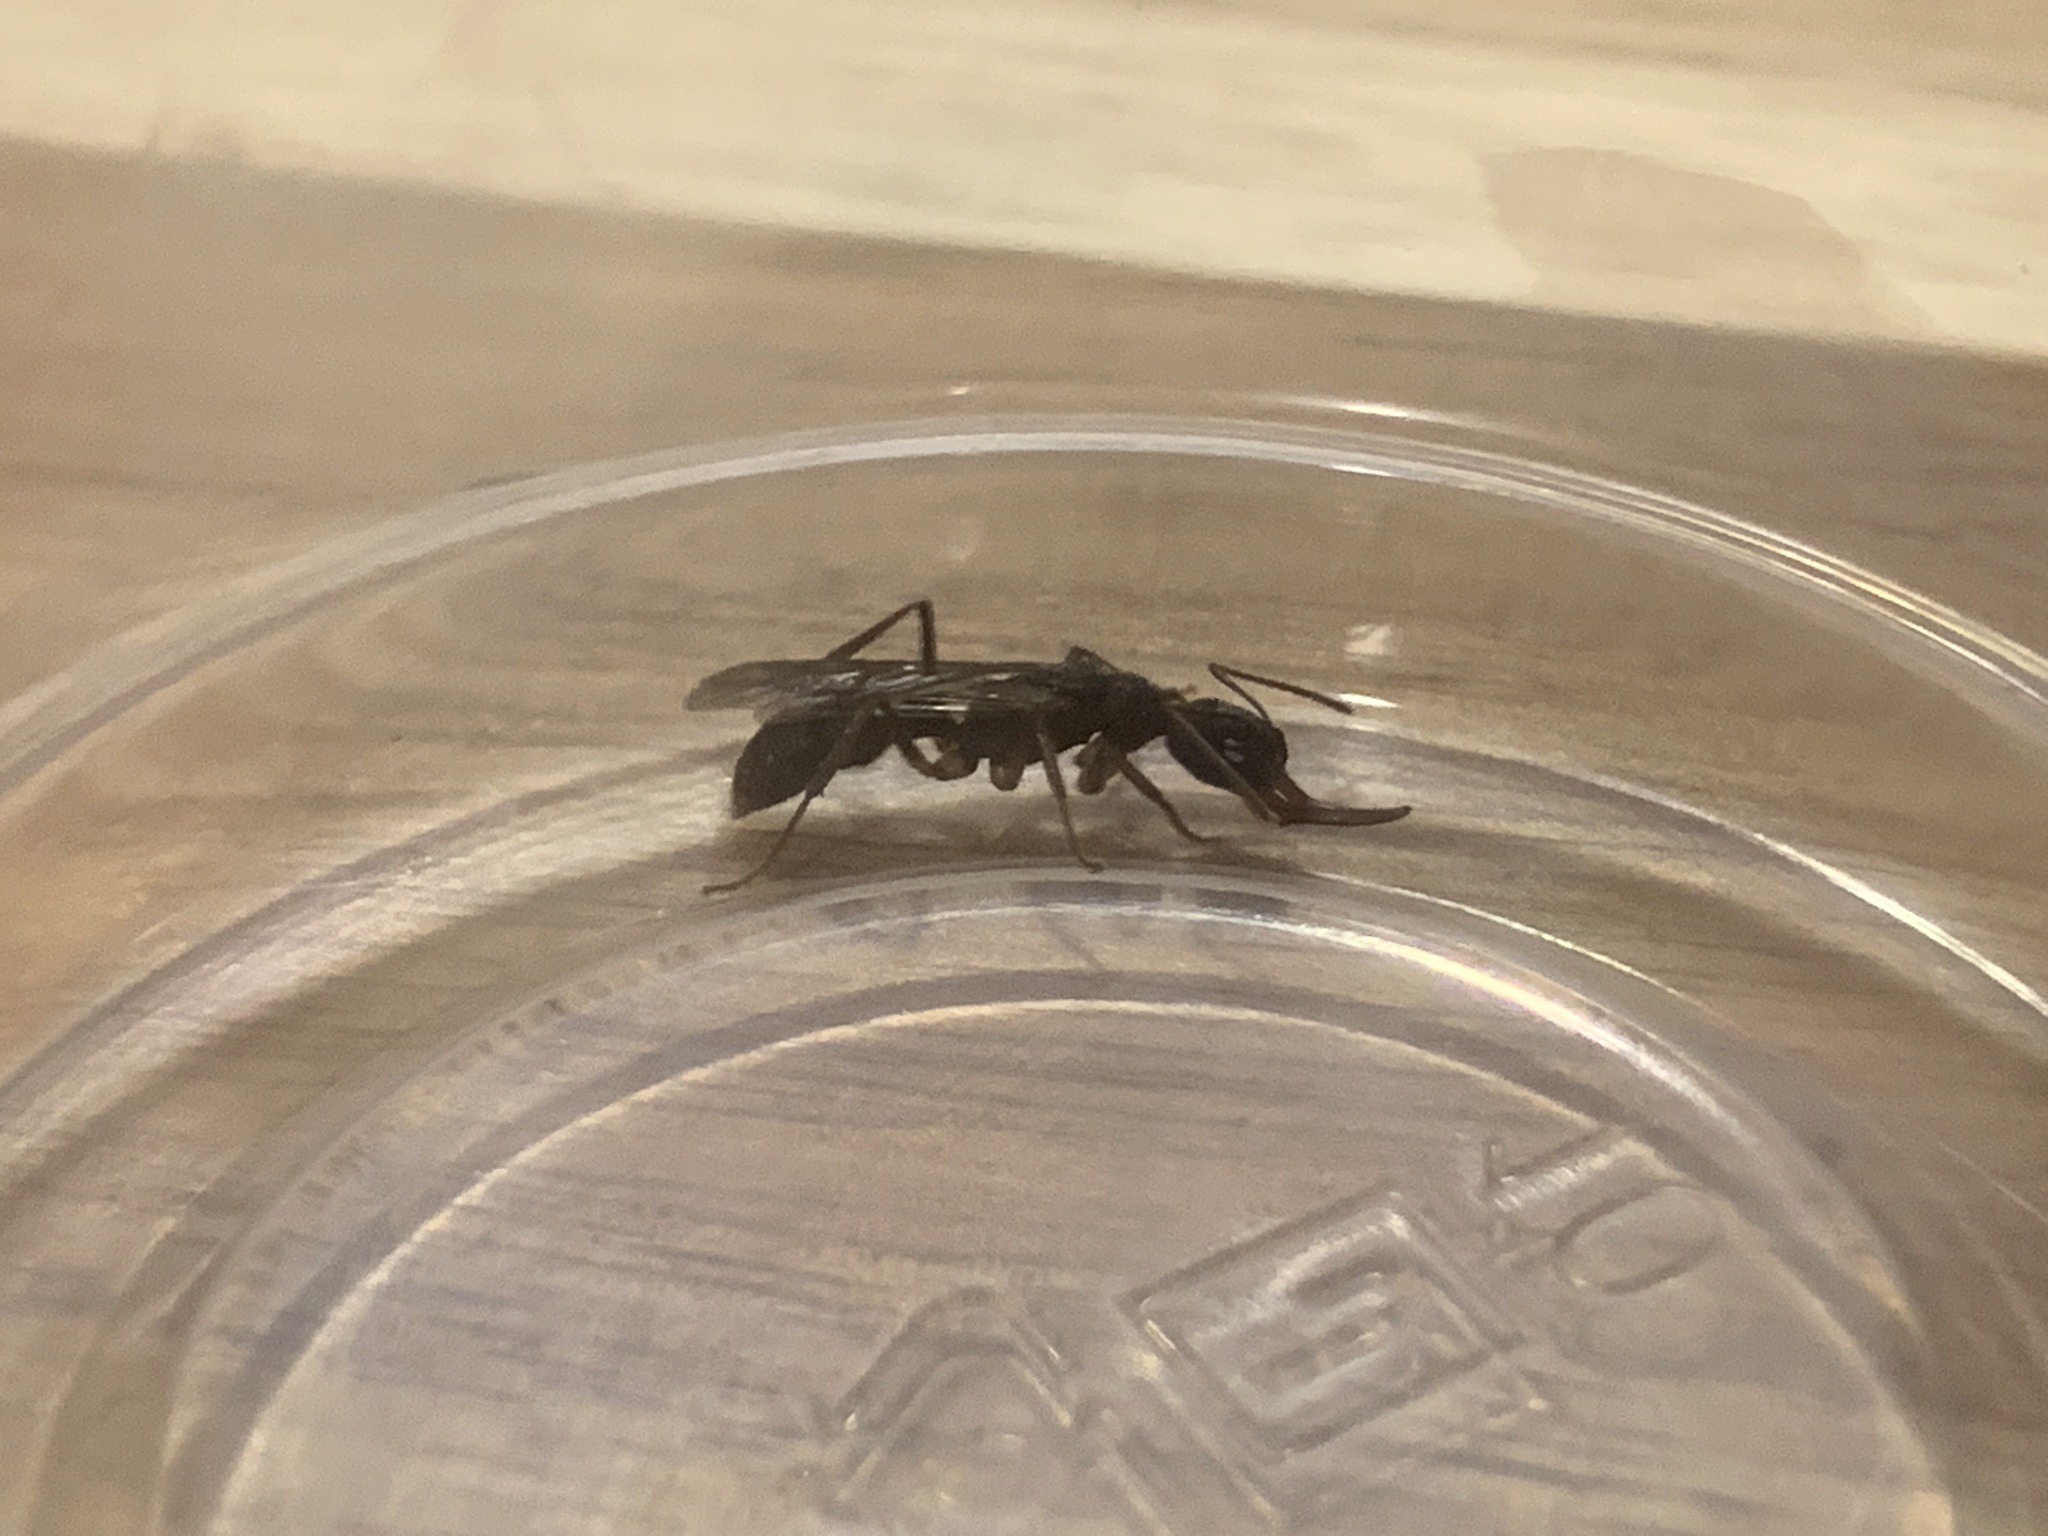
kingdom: Animalia
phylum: Arthropoda
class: Insecta
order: Hymenoptera
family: Formicidae
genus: Harpegnathos
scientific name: Harpegnathos venator
